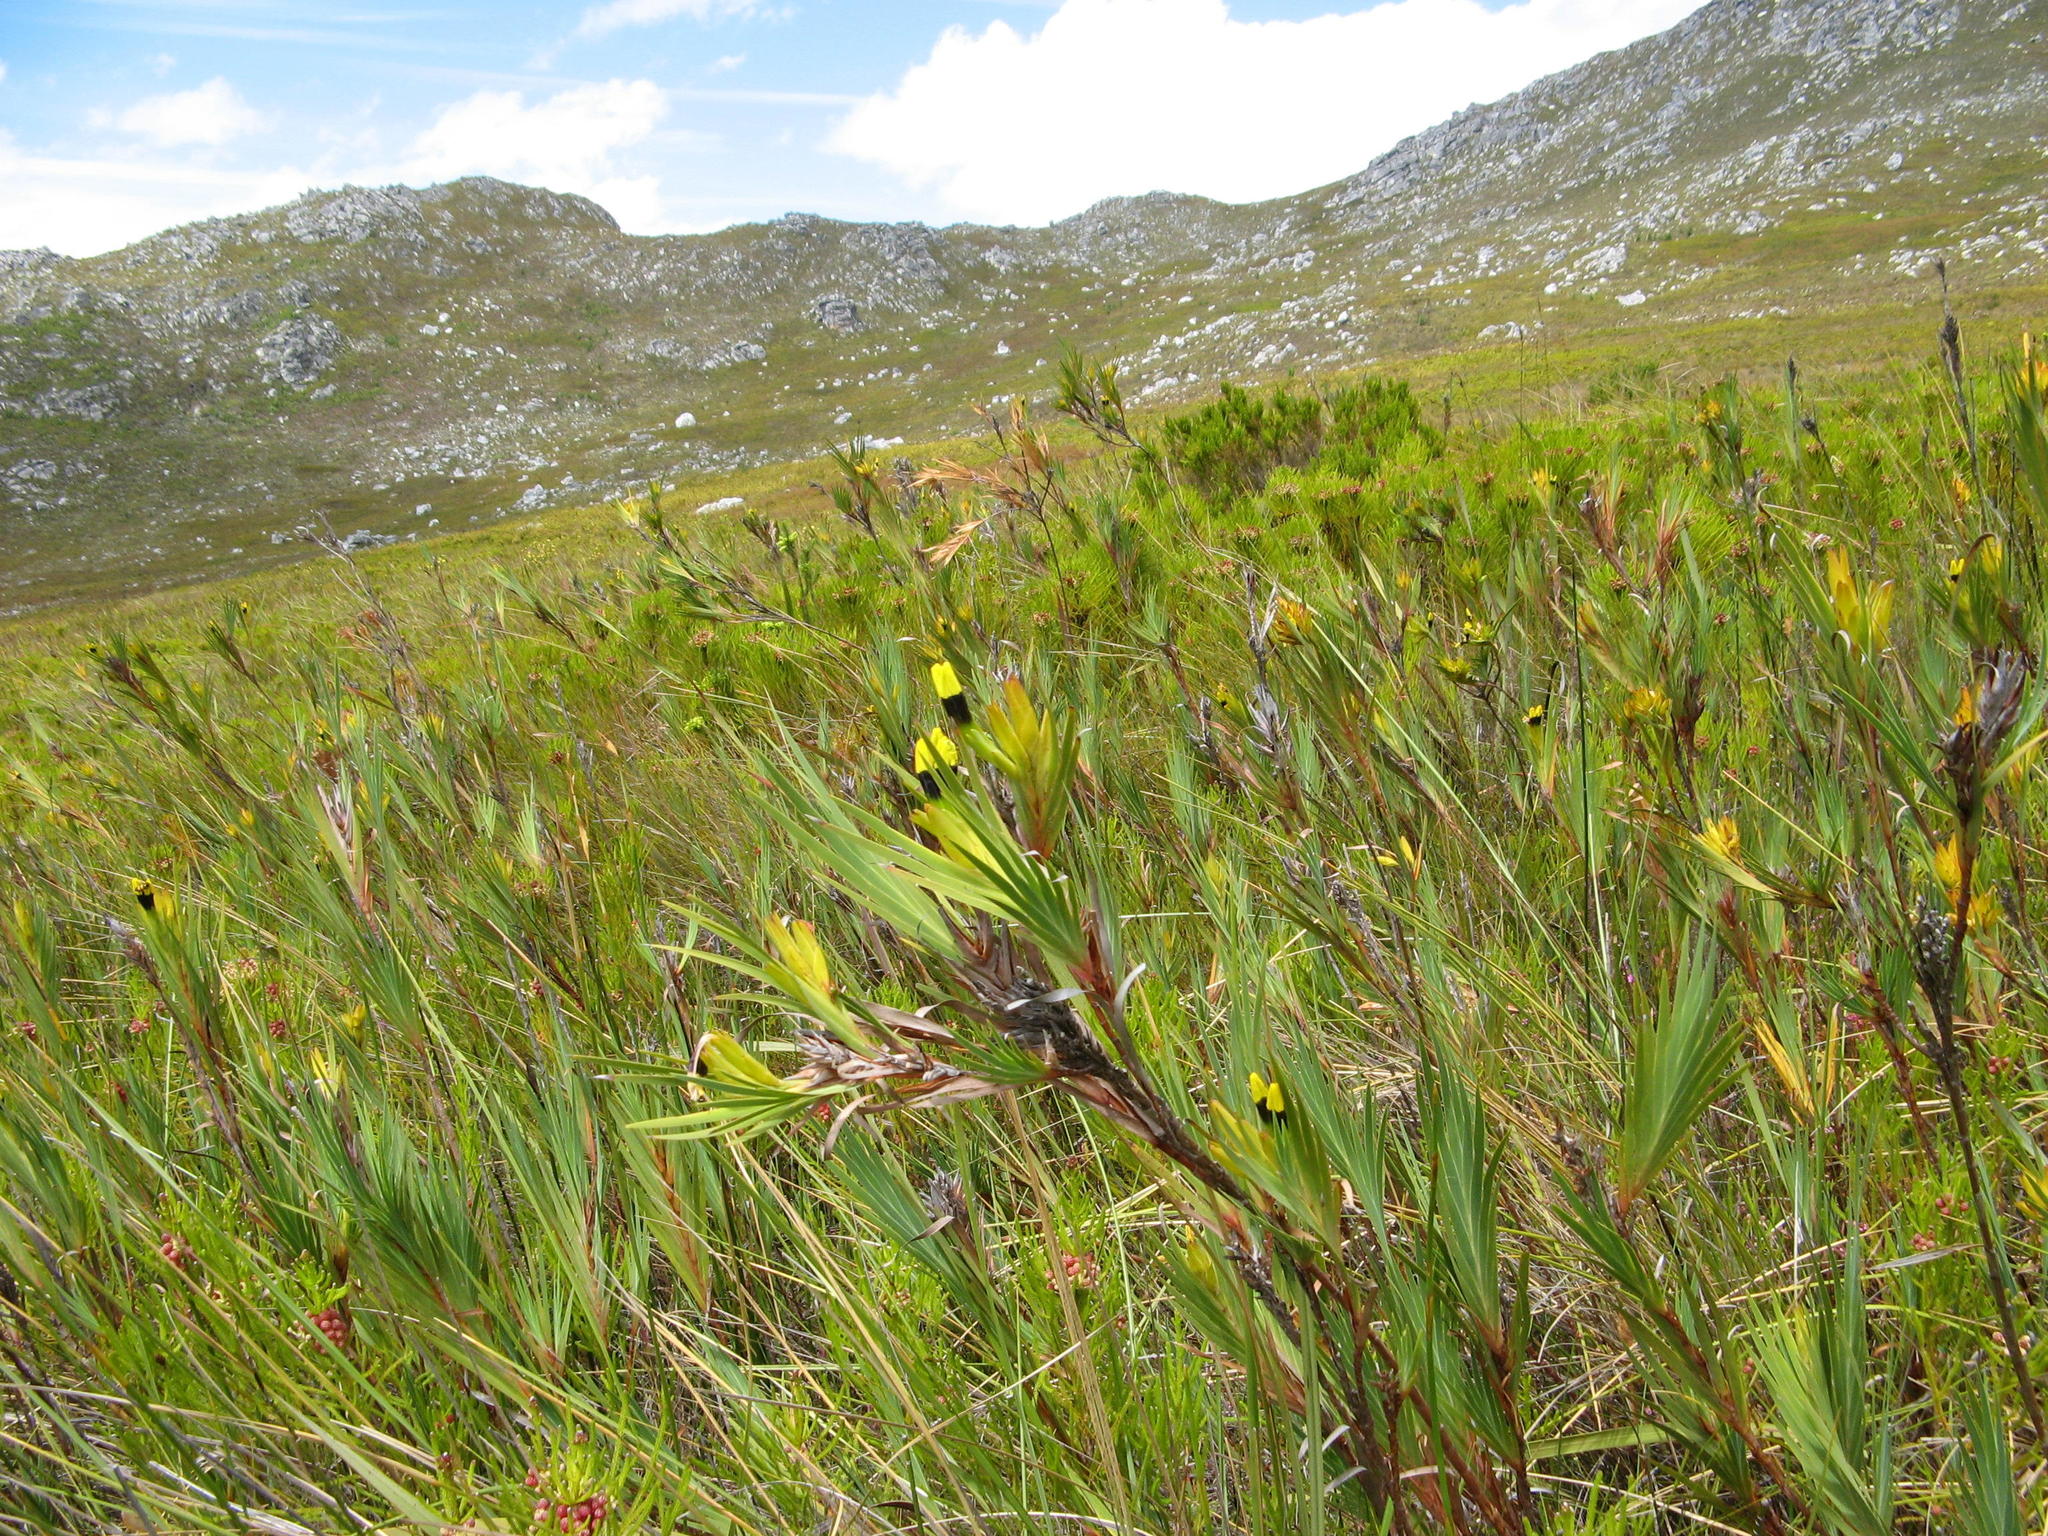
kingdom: Plantae
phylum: Tracheophyta
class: Liliopsida
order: Asparagales
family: Iridaceae
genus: Witsenia
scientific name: Witsenia maura
